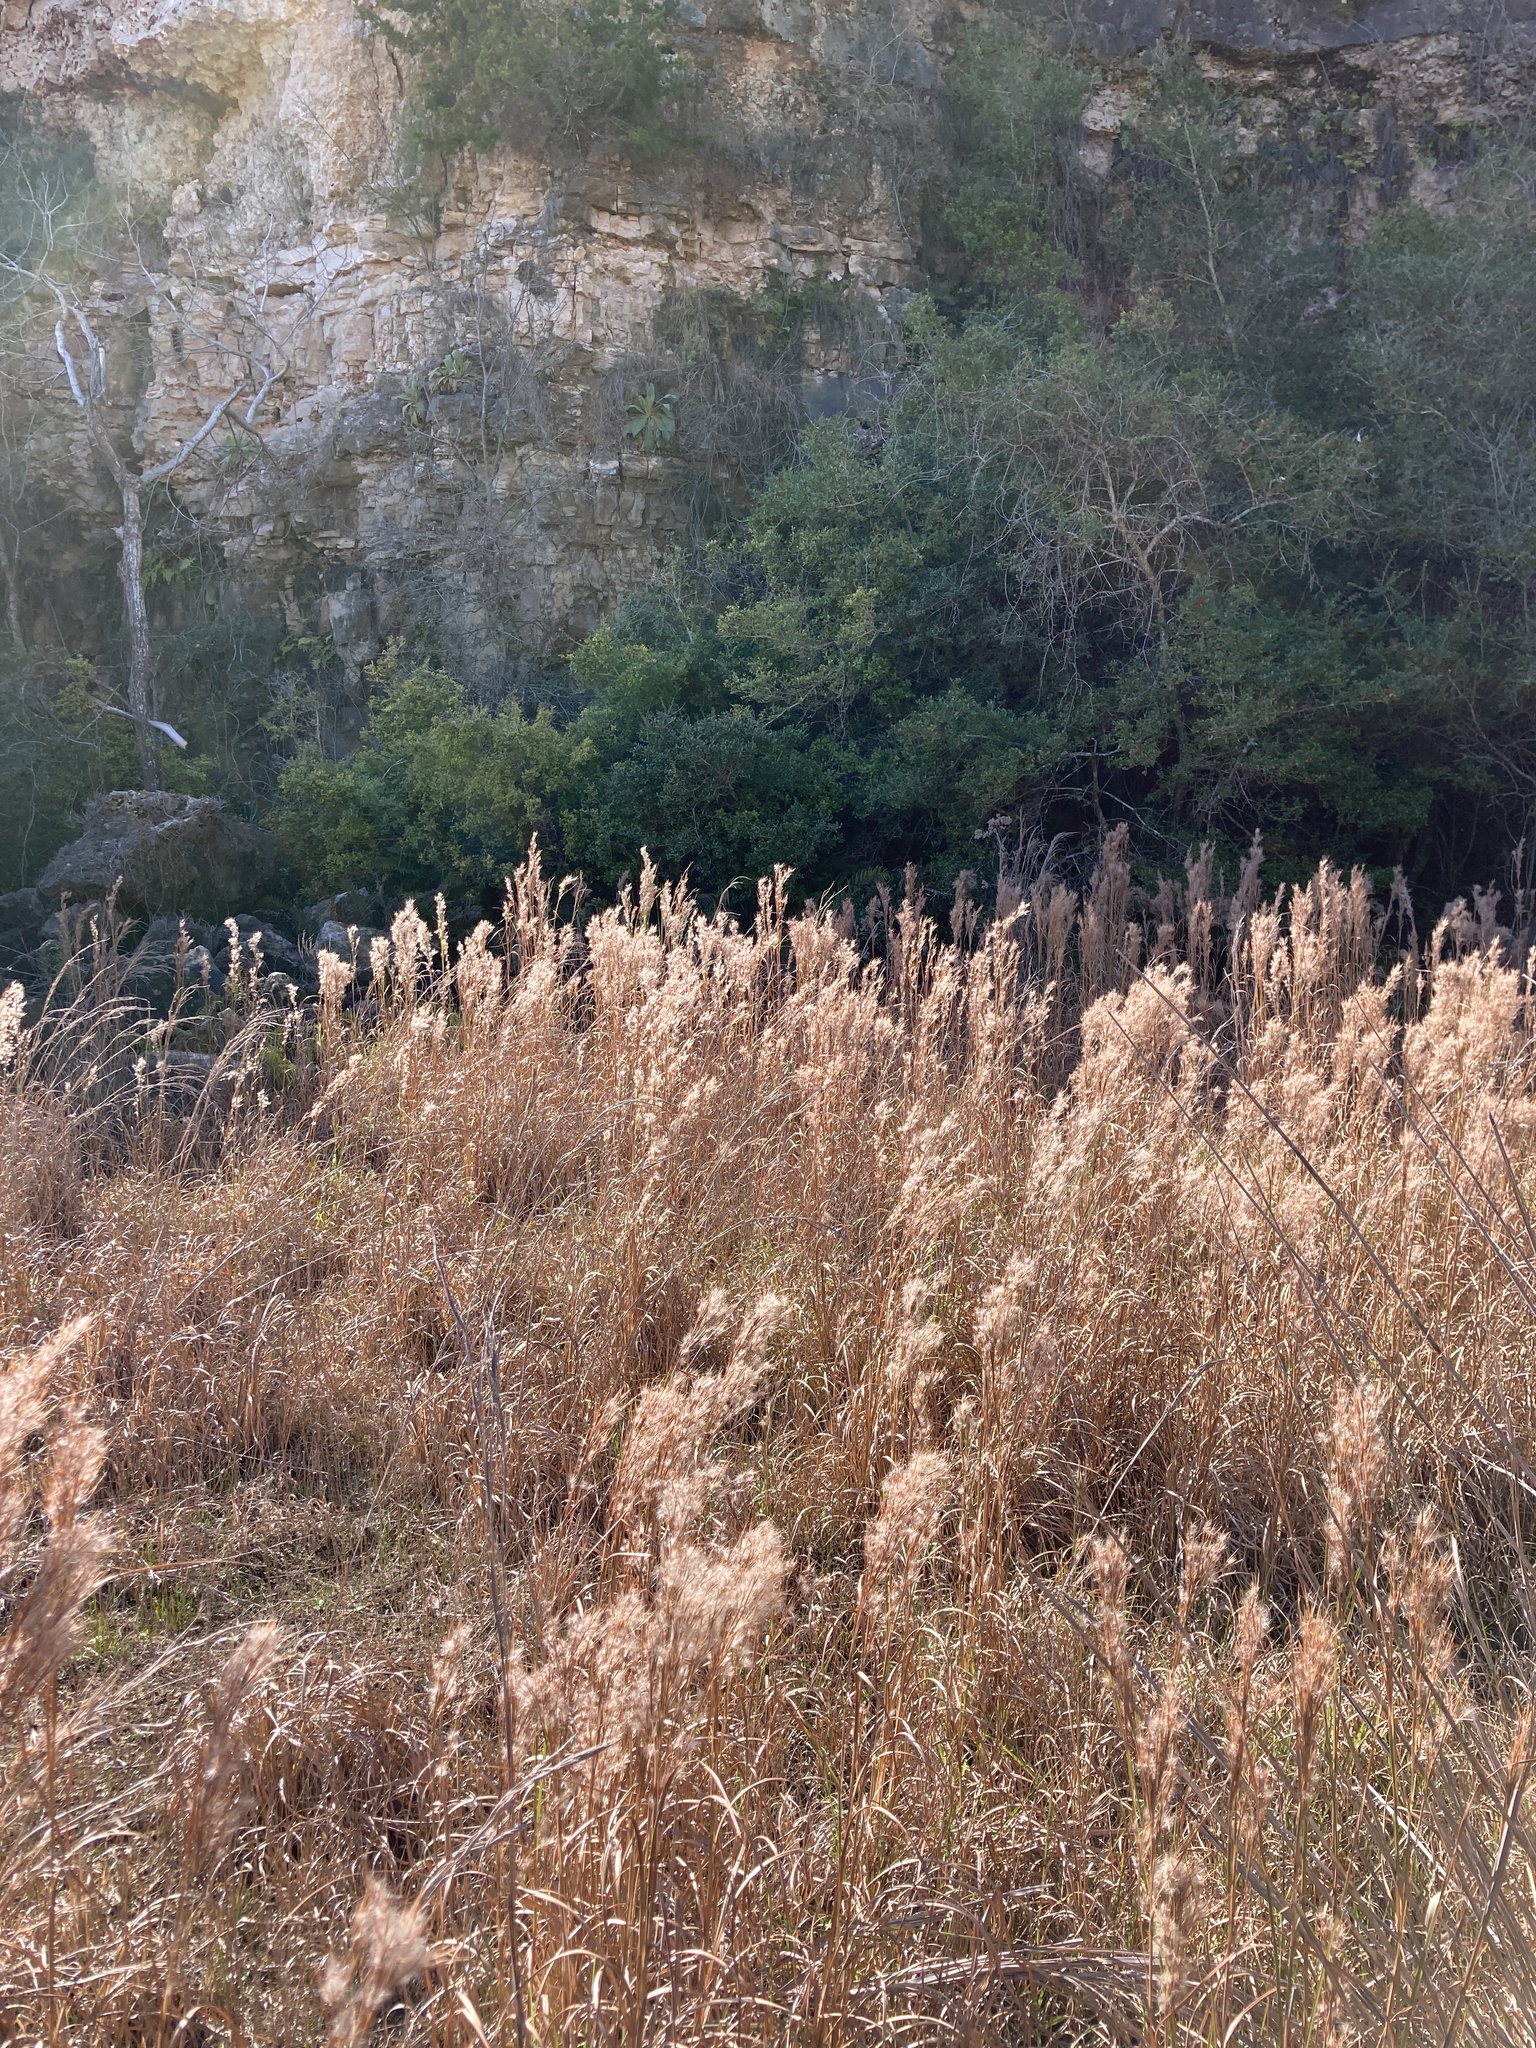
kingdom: Plantae
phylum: Tracheophyta
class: Liliopsida
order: Poales
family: Poaceae
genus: Andropogon
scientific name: Andropogon tenuispatheus
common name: Bushy bluestem
